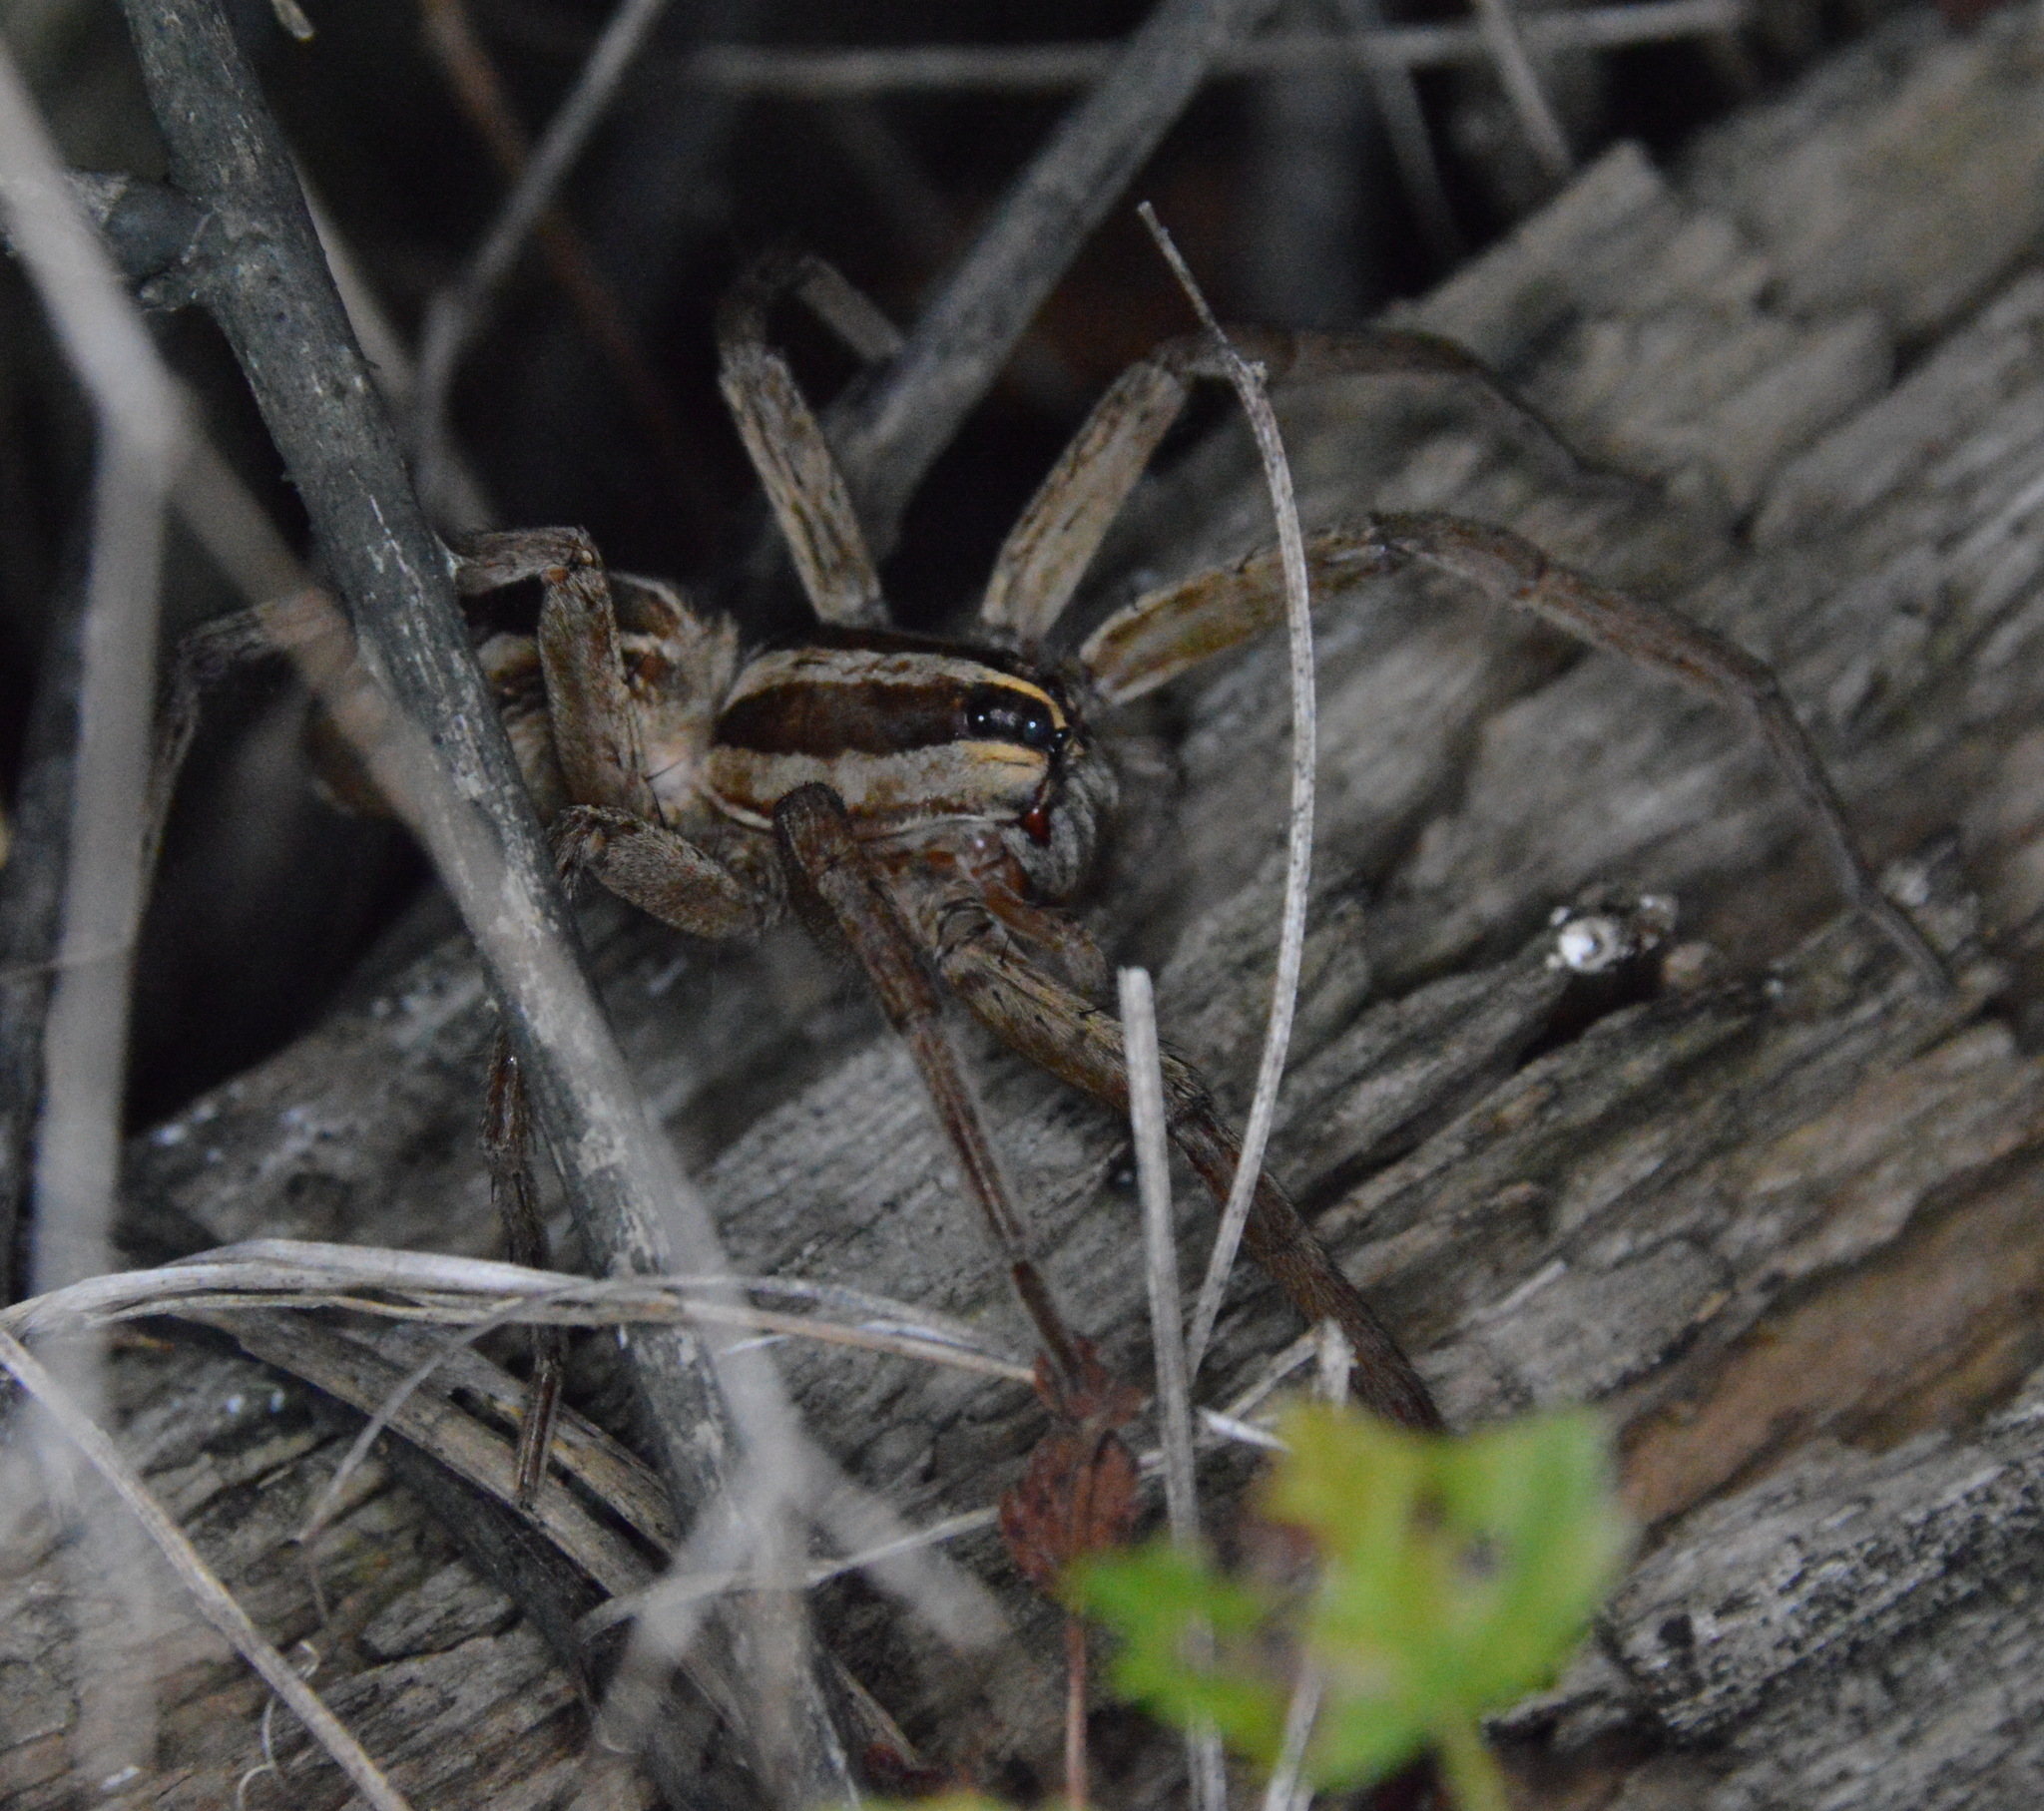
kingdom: Animalia
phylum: Arthropoda
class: Arachnida
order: Araneae
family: Lycosidae
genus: Rabidosa
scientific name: Rabidosa
